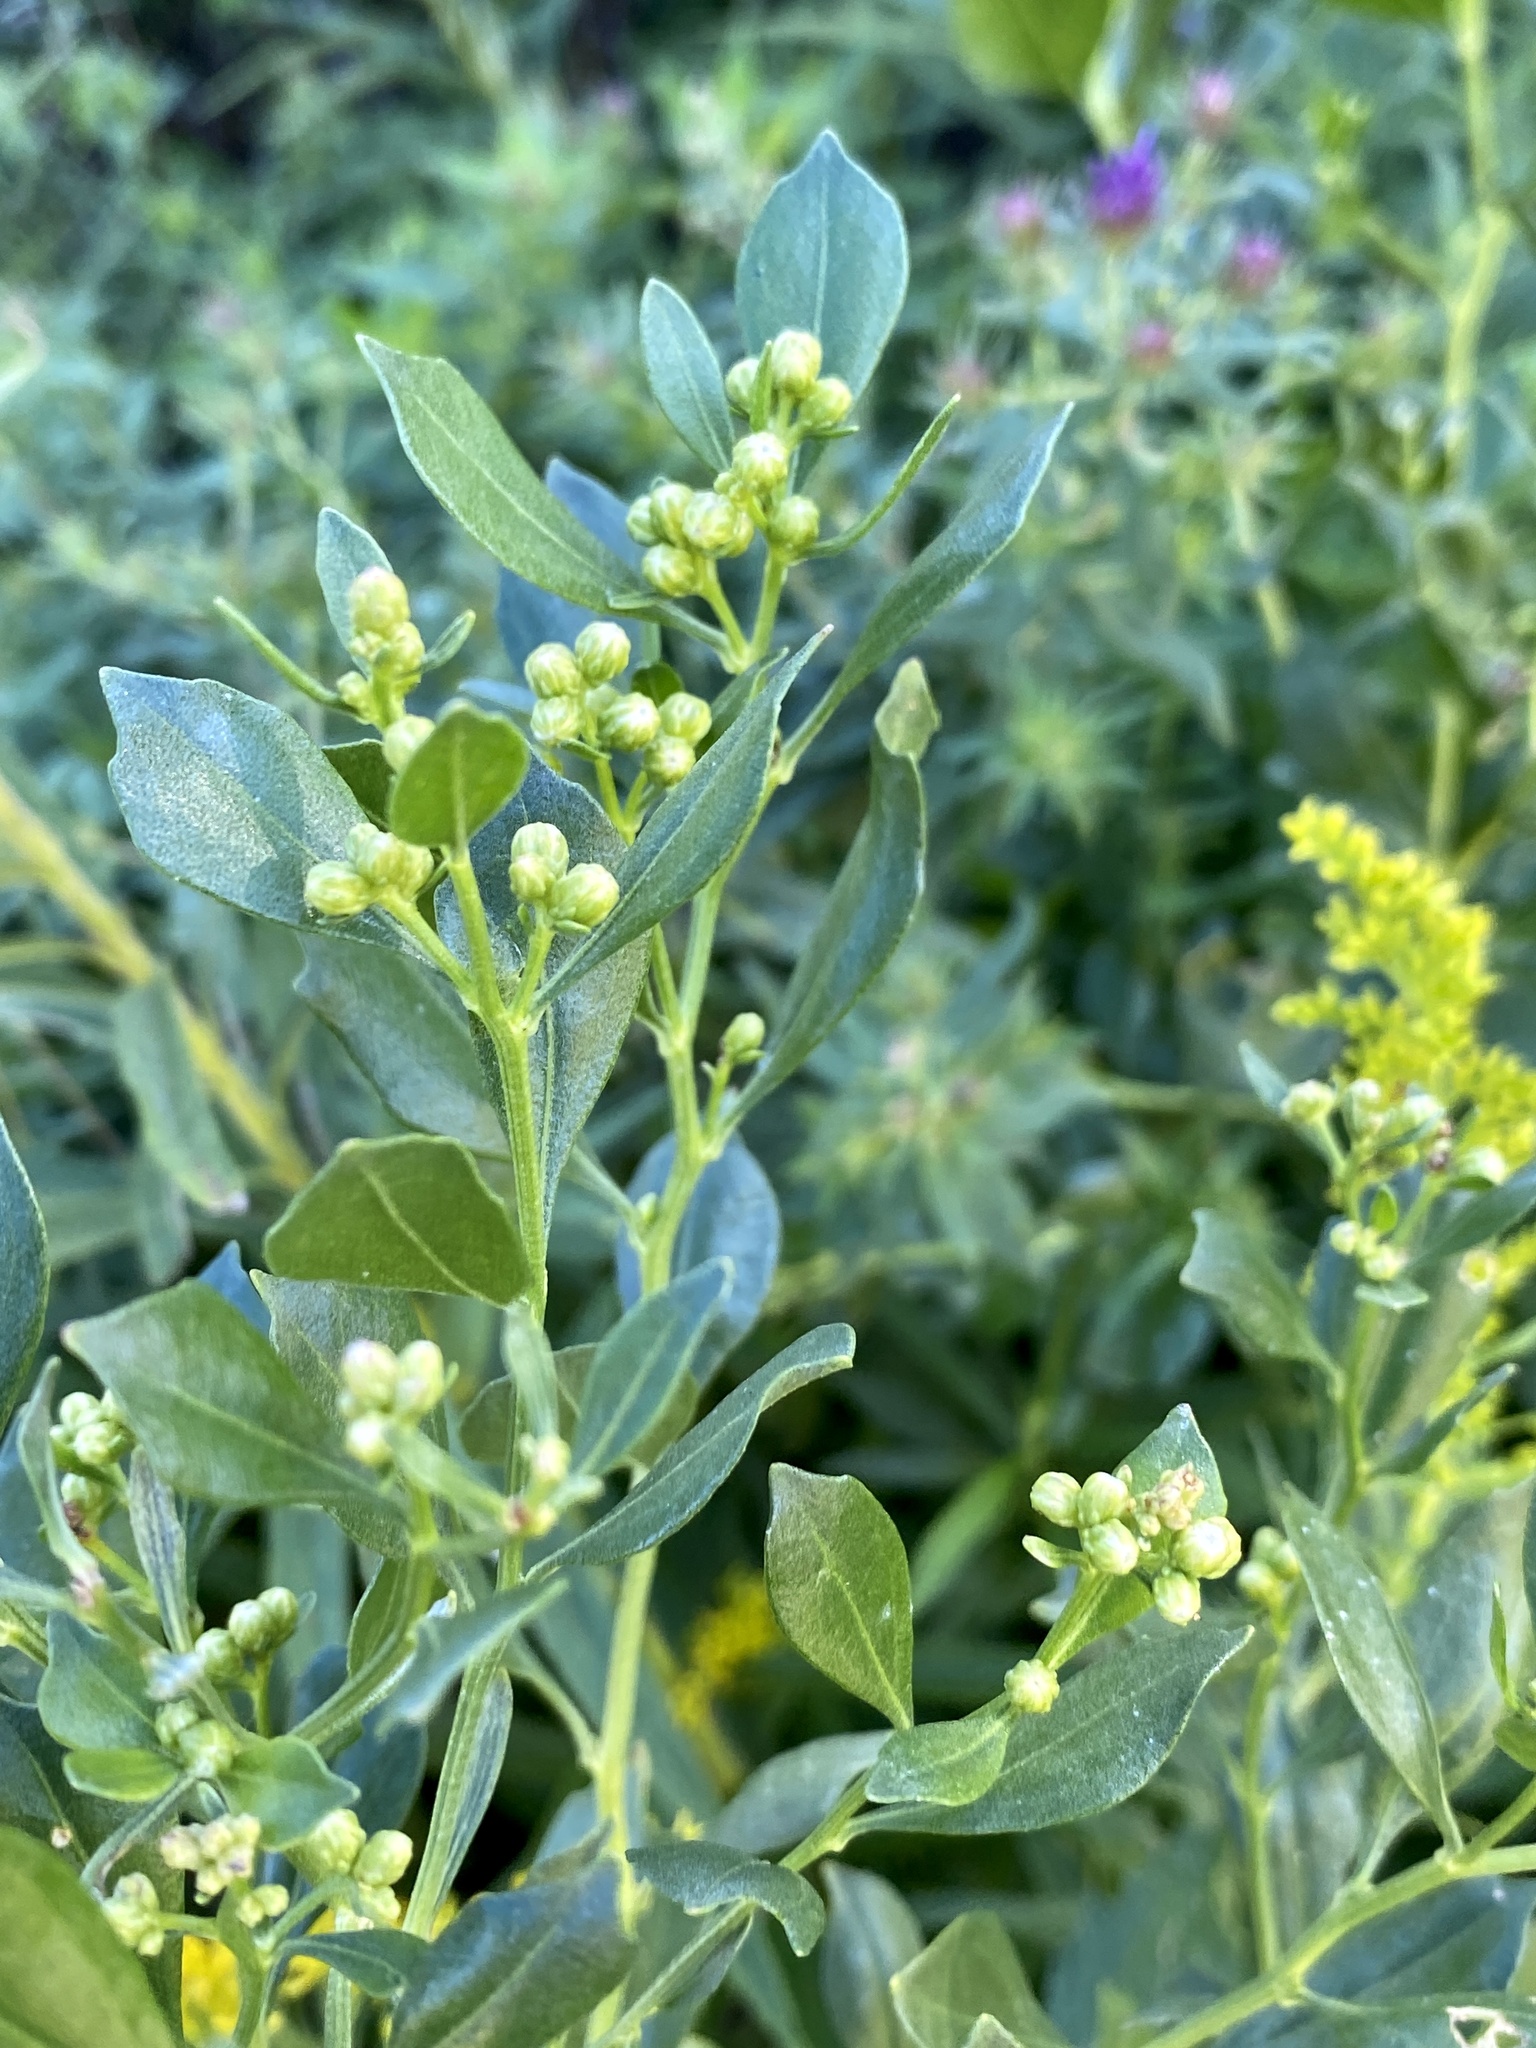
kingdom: Plantae
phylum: Tracheophyta
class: Magnoliopsida
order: Asterales
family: Asteraceae
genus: Baccharis
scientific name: Baccharis halimifolia
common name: Eastern baccharis
